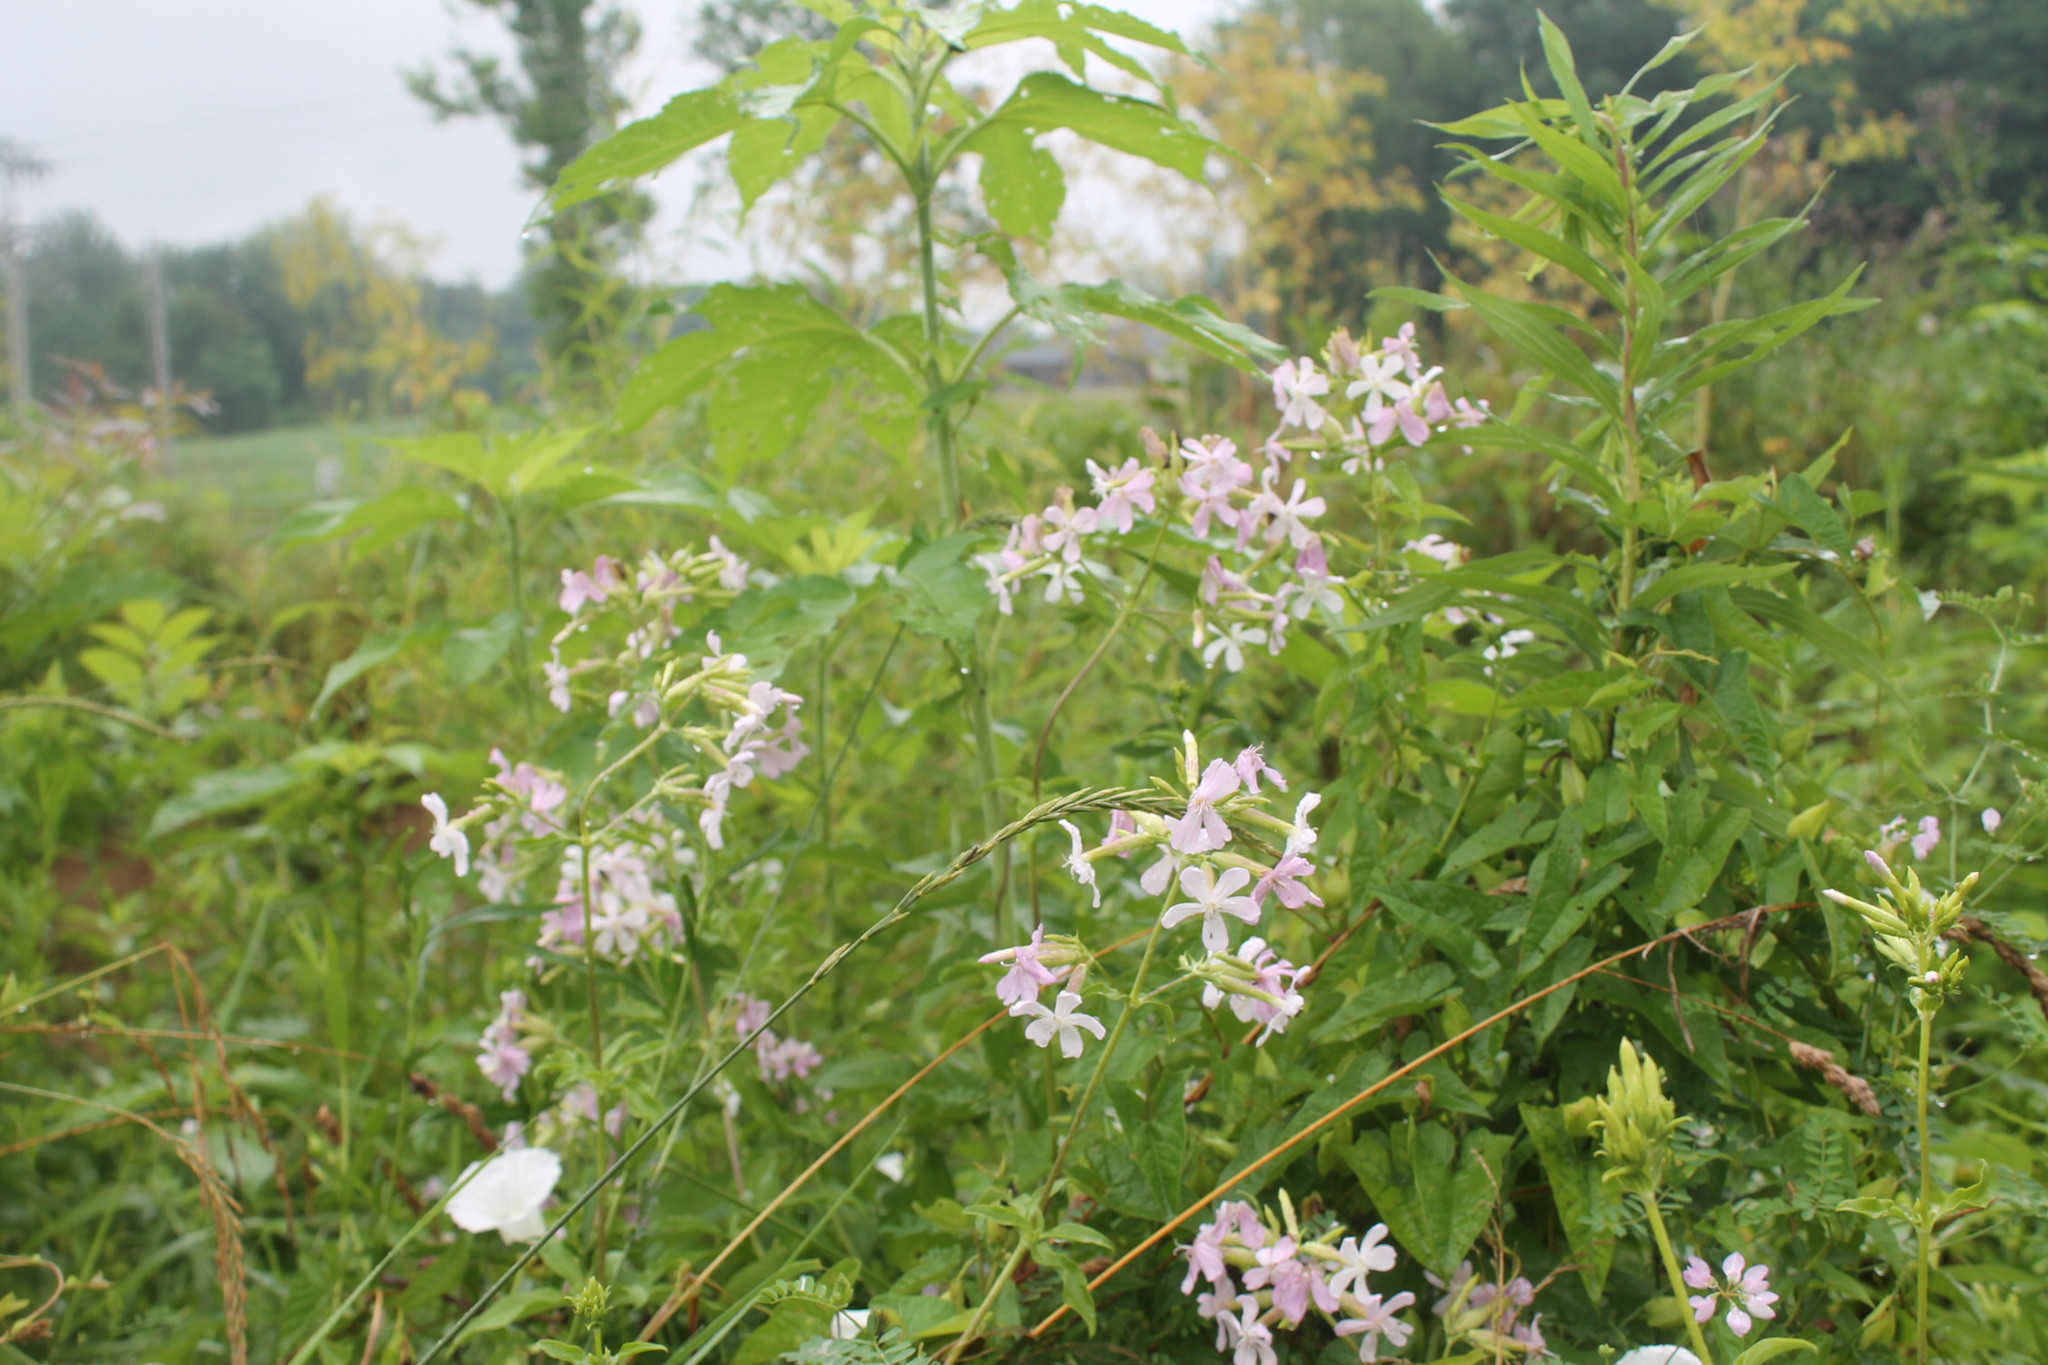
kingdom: Plantae
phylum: Tracheophyta
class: Magnoliopsida
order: Caryophyllales
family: Caryophyllaceae
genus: Saponaria
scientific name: Saponaria officinalis
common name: Soapwort
